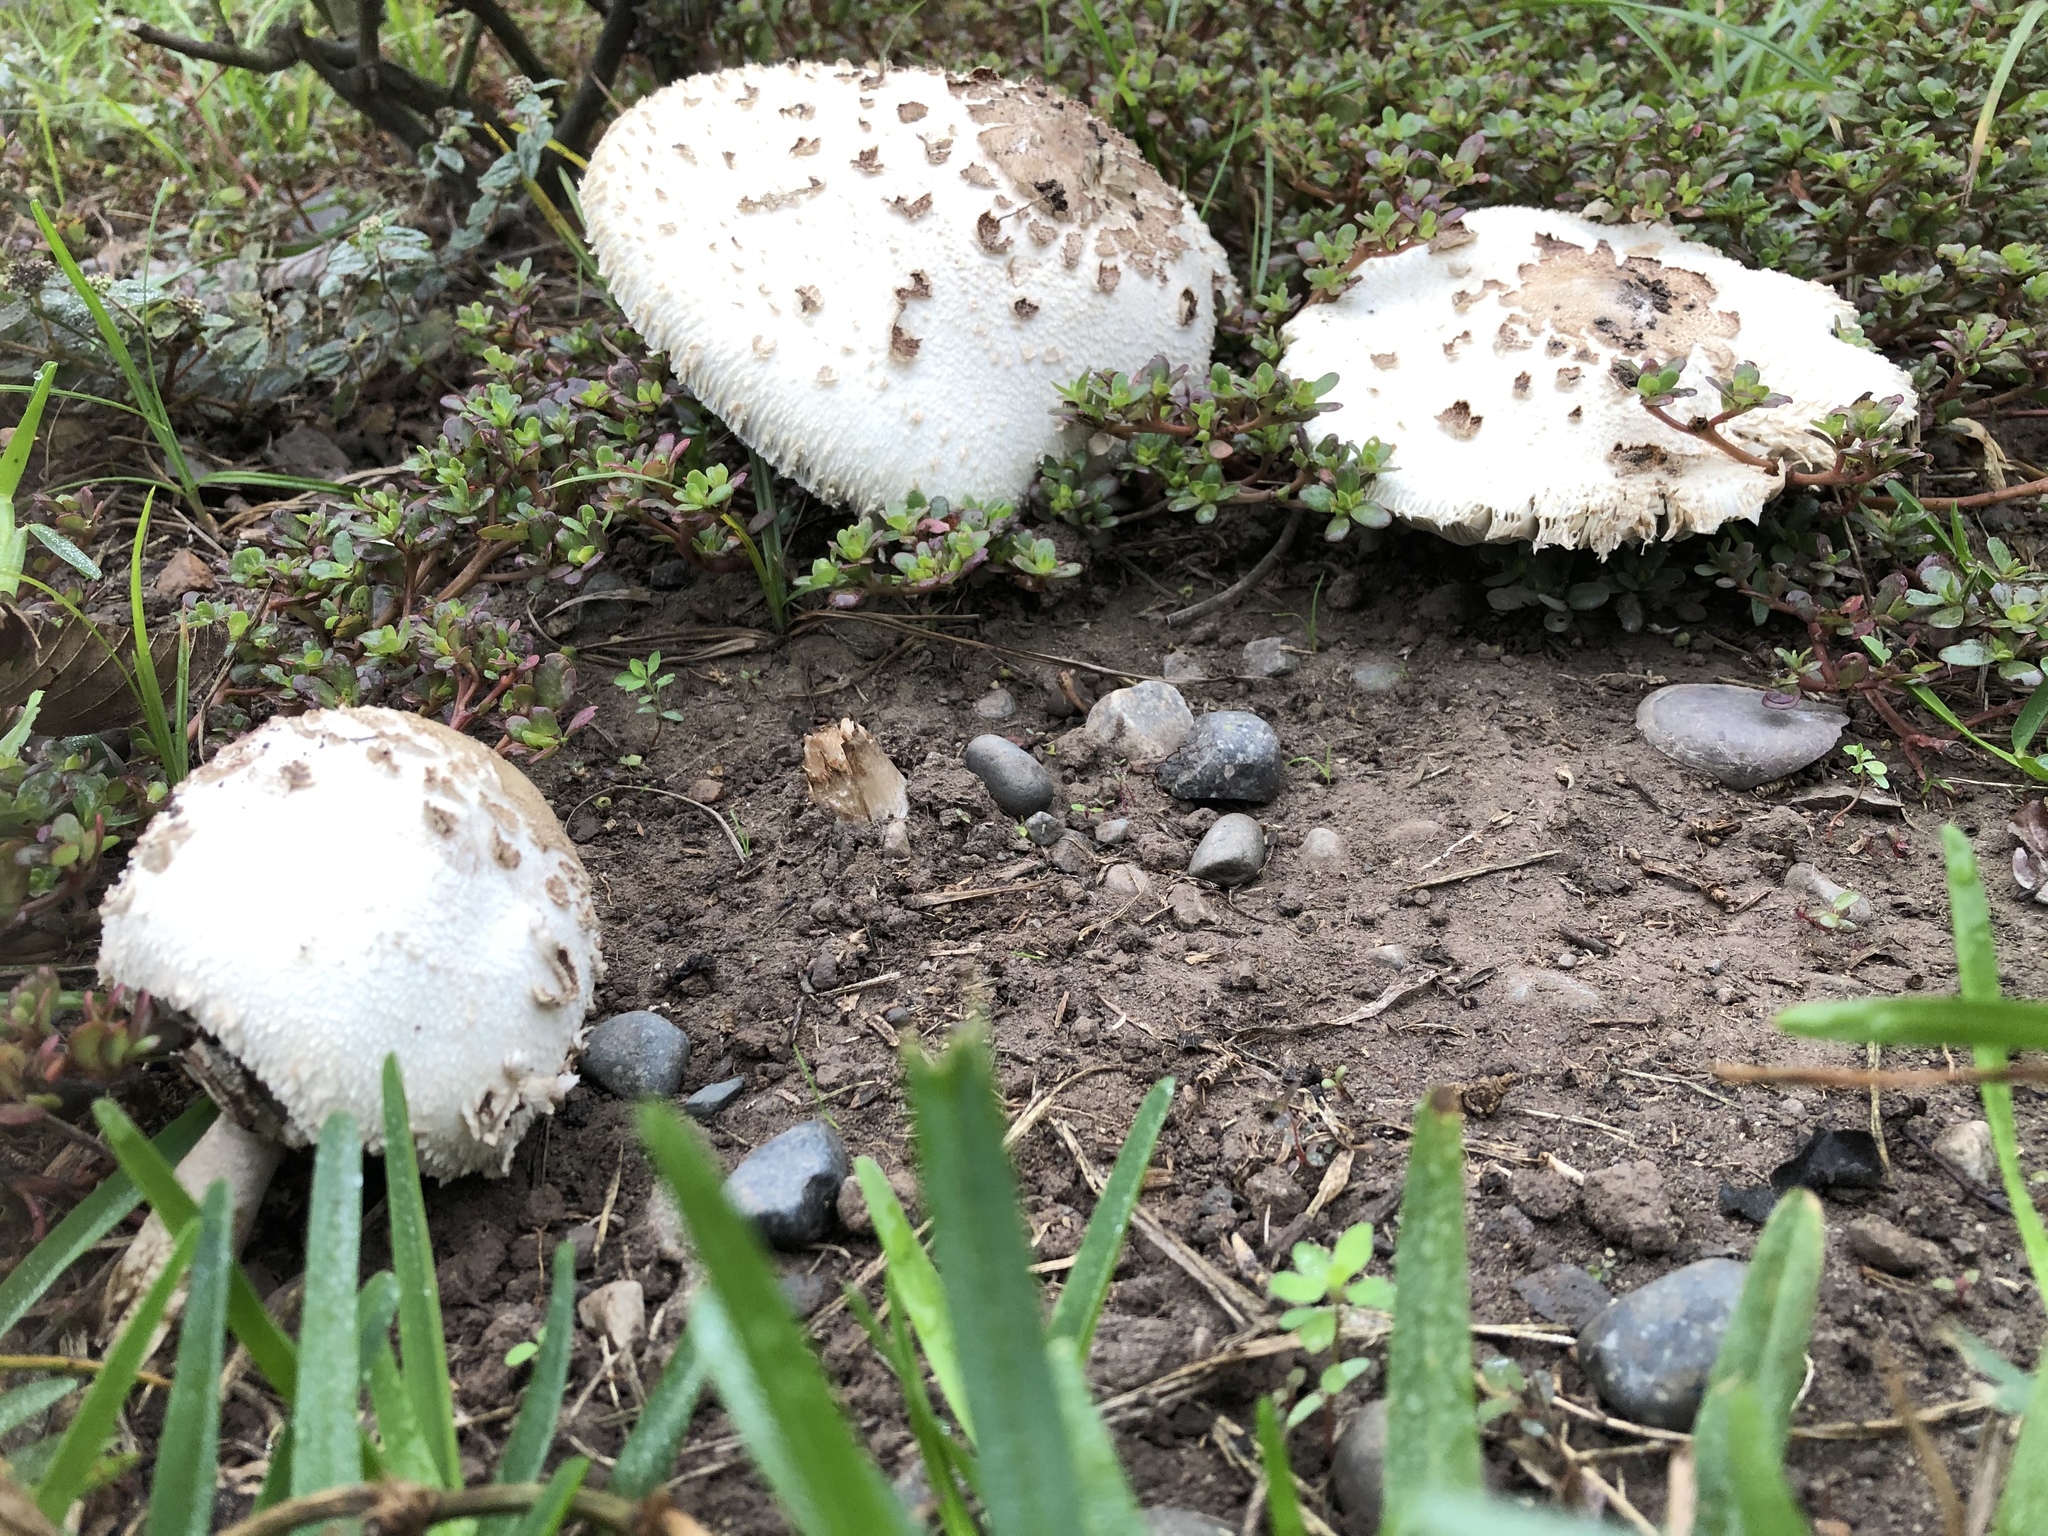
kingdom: Fungi
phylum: Basidiomycota
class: Agaricomycetes
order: Agaricales
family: Agaricaceae
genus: Chlorophyllum
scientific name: Chlorophyllum molybdites
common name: False parasol
